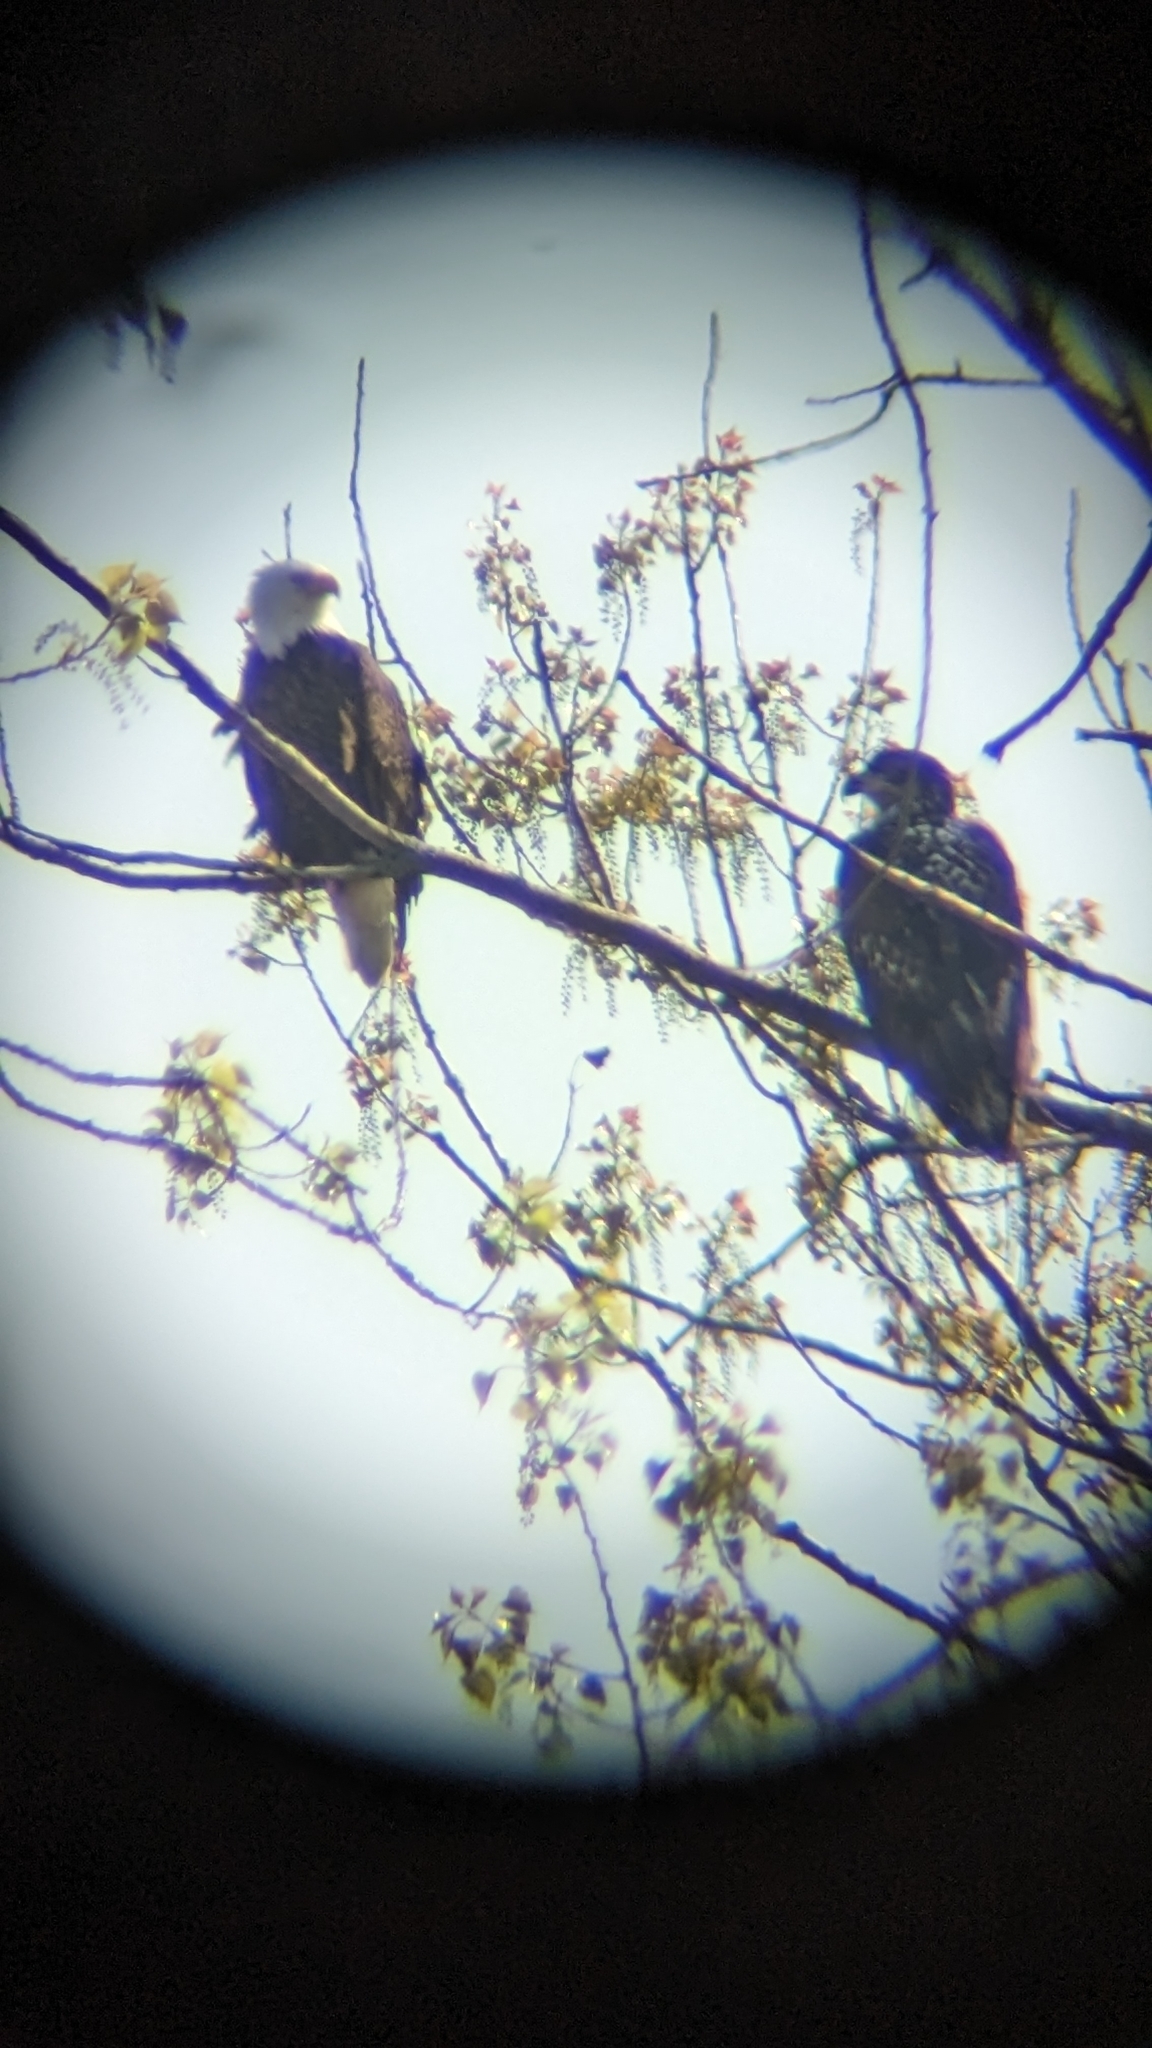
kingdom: Animalia
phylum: Chordata
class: Aves
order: Accipitriformes
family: Accipitridae
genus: Haliaeetus
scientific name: Haliaeetus leucocephalus
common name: Bald eagle
